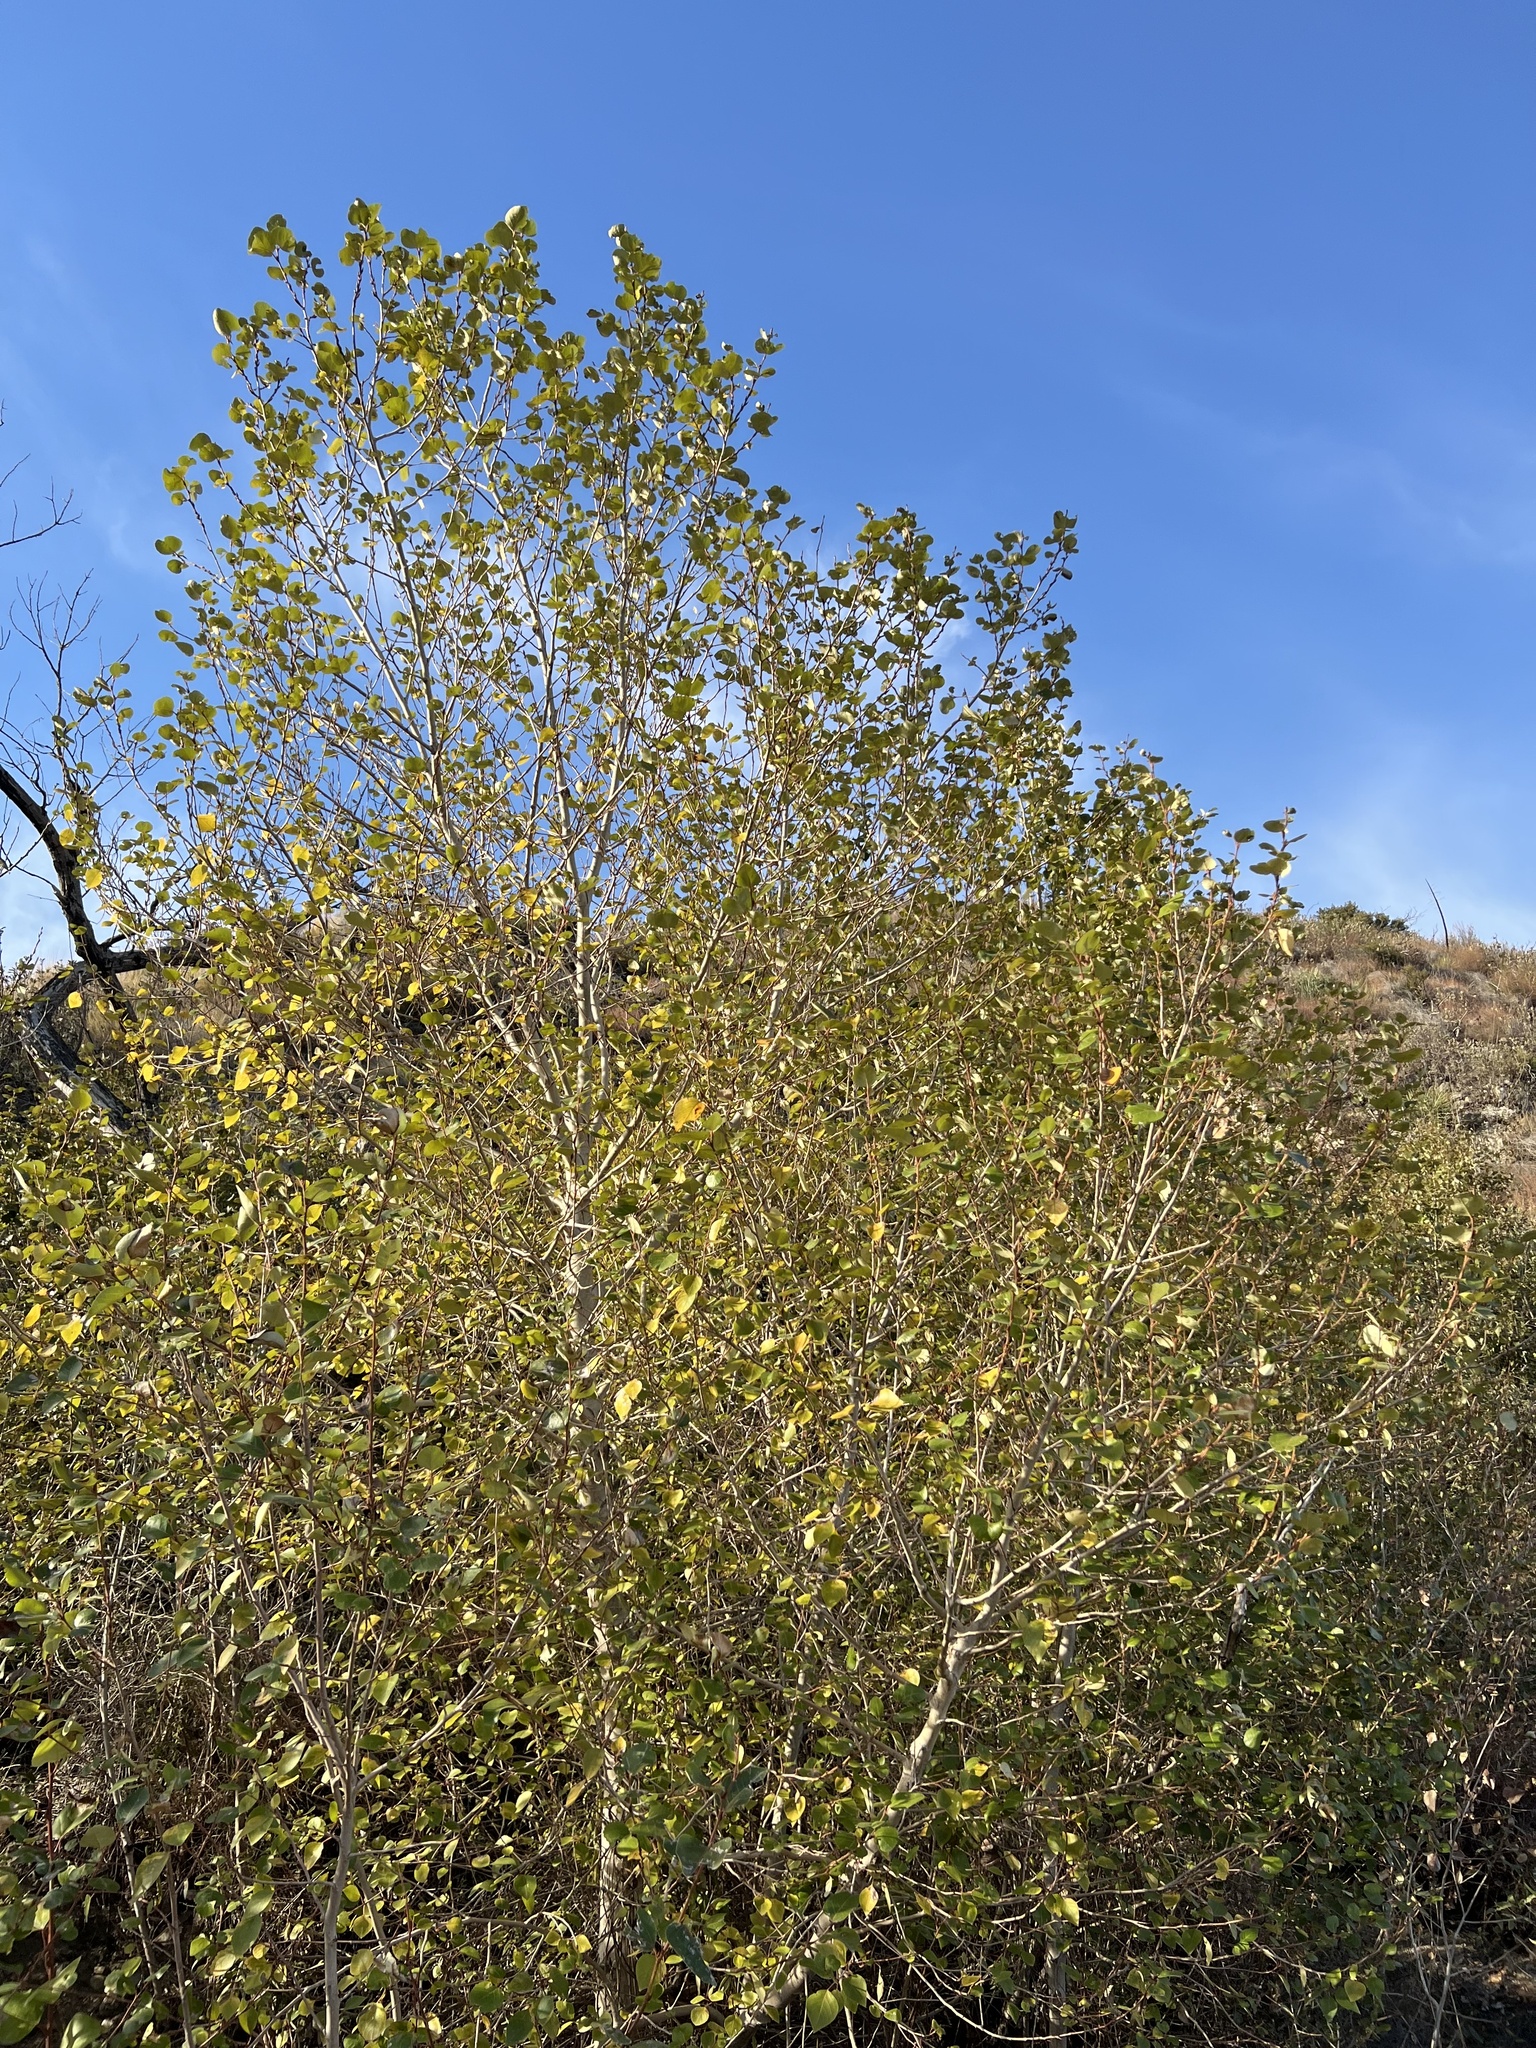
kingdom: Plantae
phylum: Tracheophyta
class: Magnoliopsida
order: Malpighiales
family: Salicaceae
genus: Populus
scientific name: Populus fremontii
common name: Fremont's cottonwood
